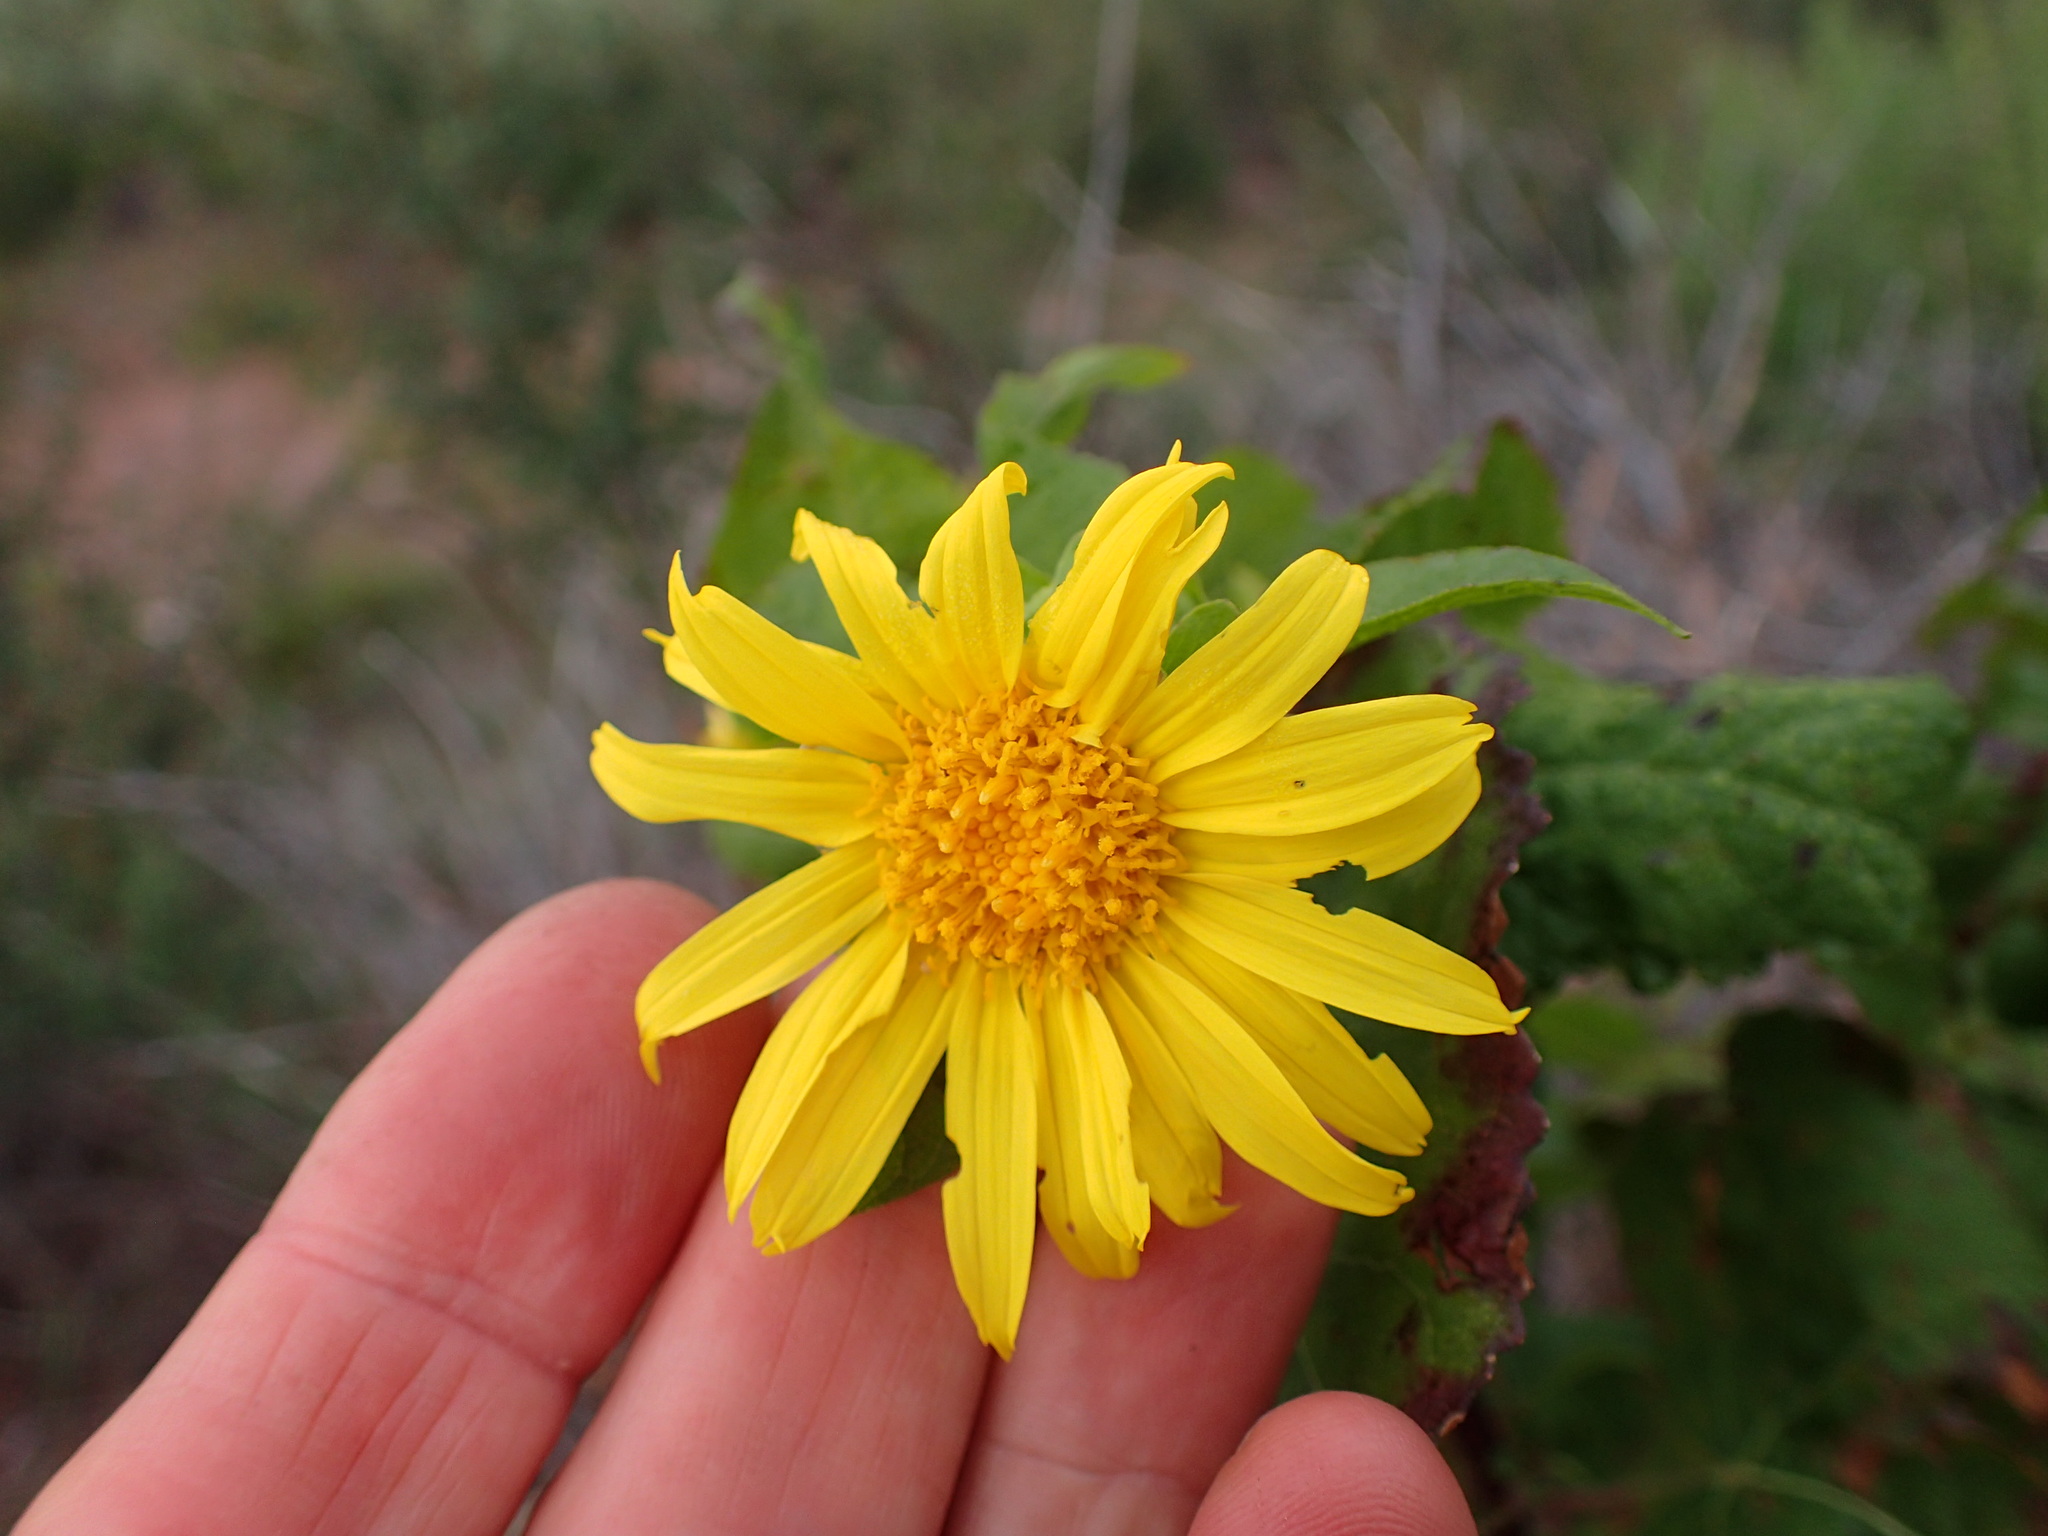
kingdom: Plantae
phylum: Tracheophyta
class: Magnoliopsida
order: Asterales
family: Asteraceae
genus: Venegasia
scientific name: Venegasia carpesioides
